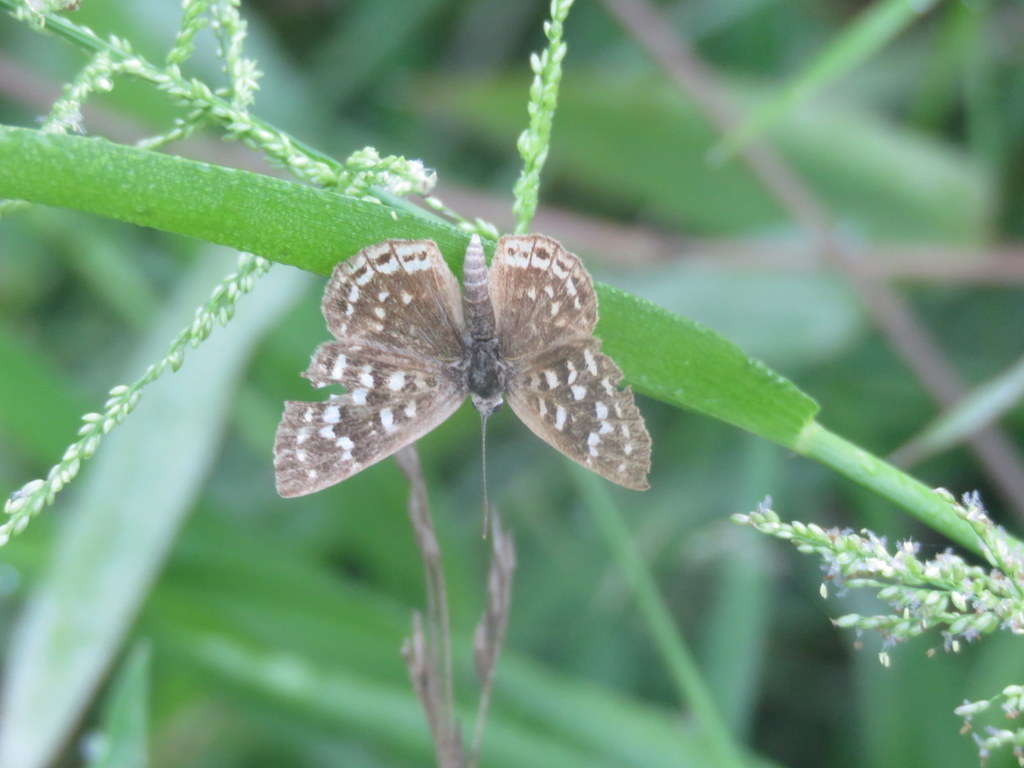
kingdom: Animalia
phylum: Arthropoda
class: Insecta
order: Lepidoptera
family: Lycaenidae
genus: Aricoris
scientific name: Aricoris indistincta
